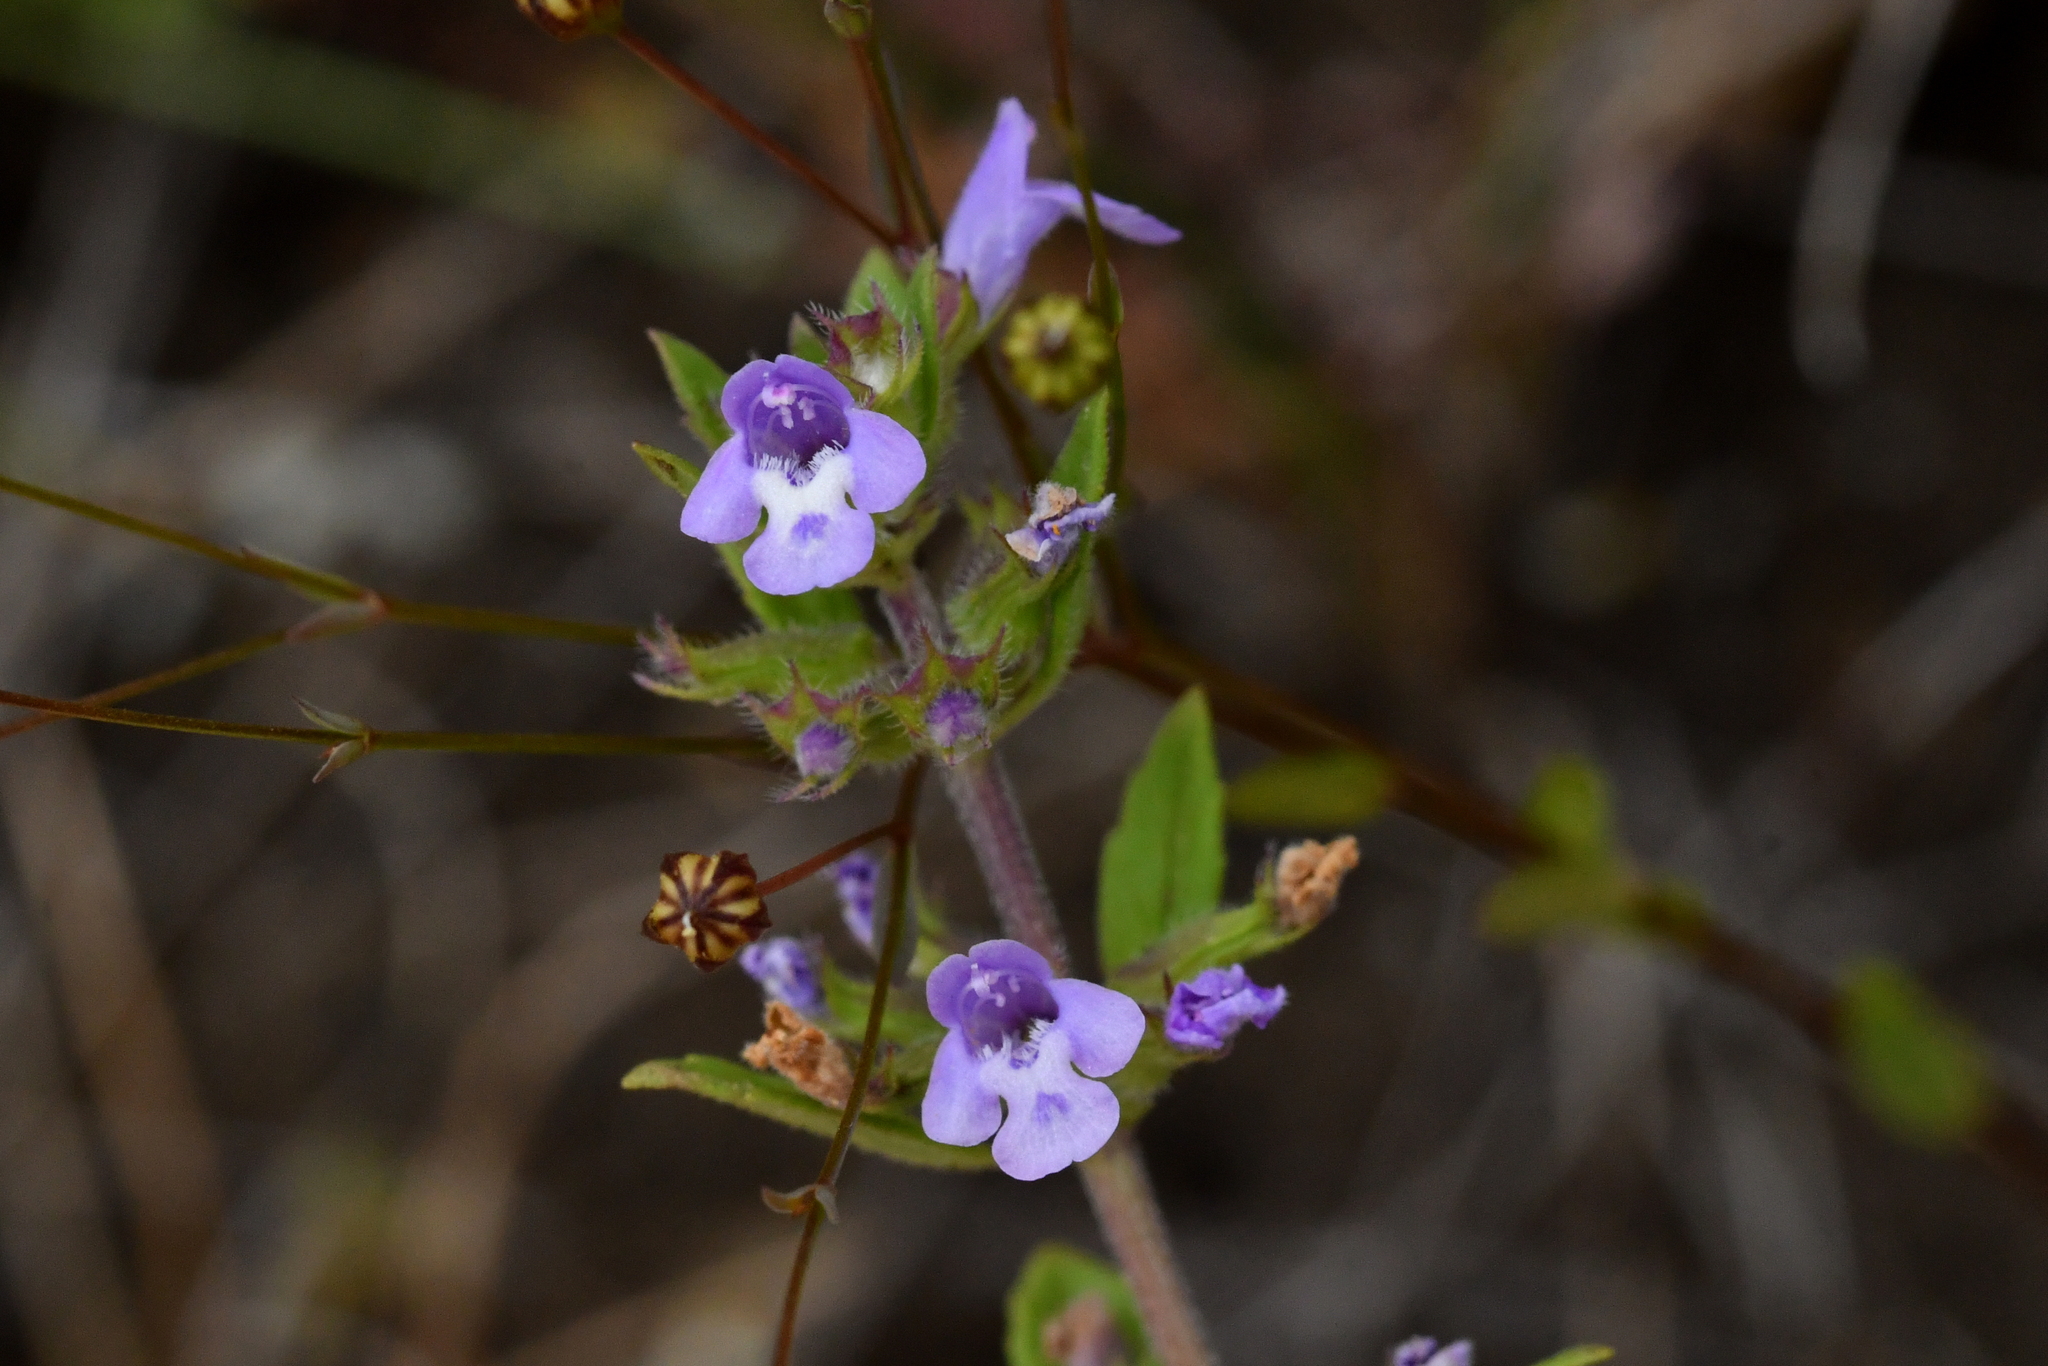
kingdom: Plantae
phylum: Tracheophyta
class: Magnoliopsida
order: Lamiales
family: Lamiaceae
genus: Clinopodium
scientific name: Clinopodium acinos
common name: Basil thyme
